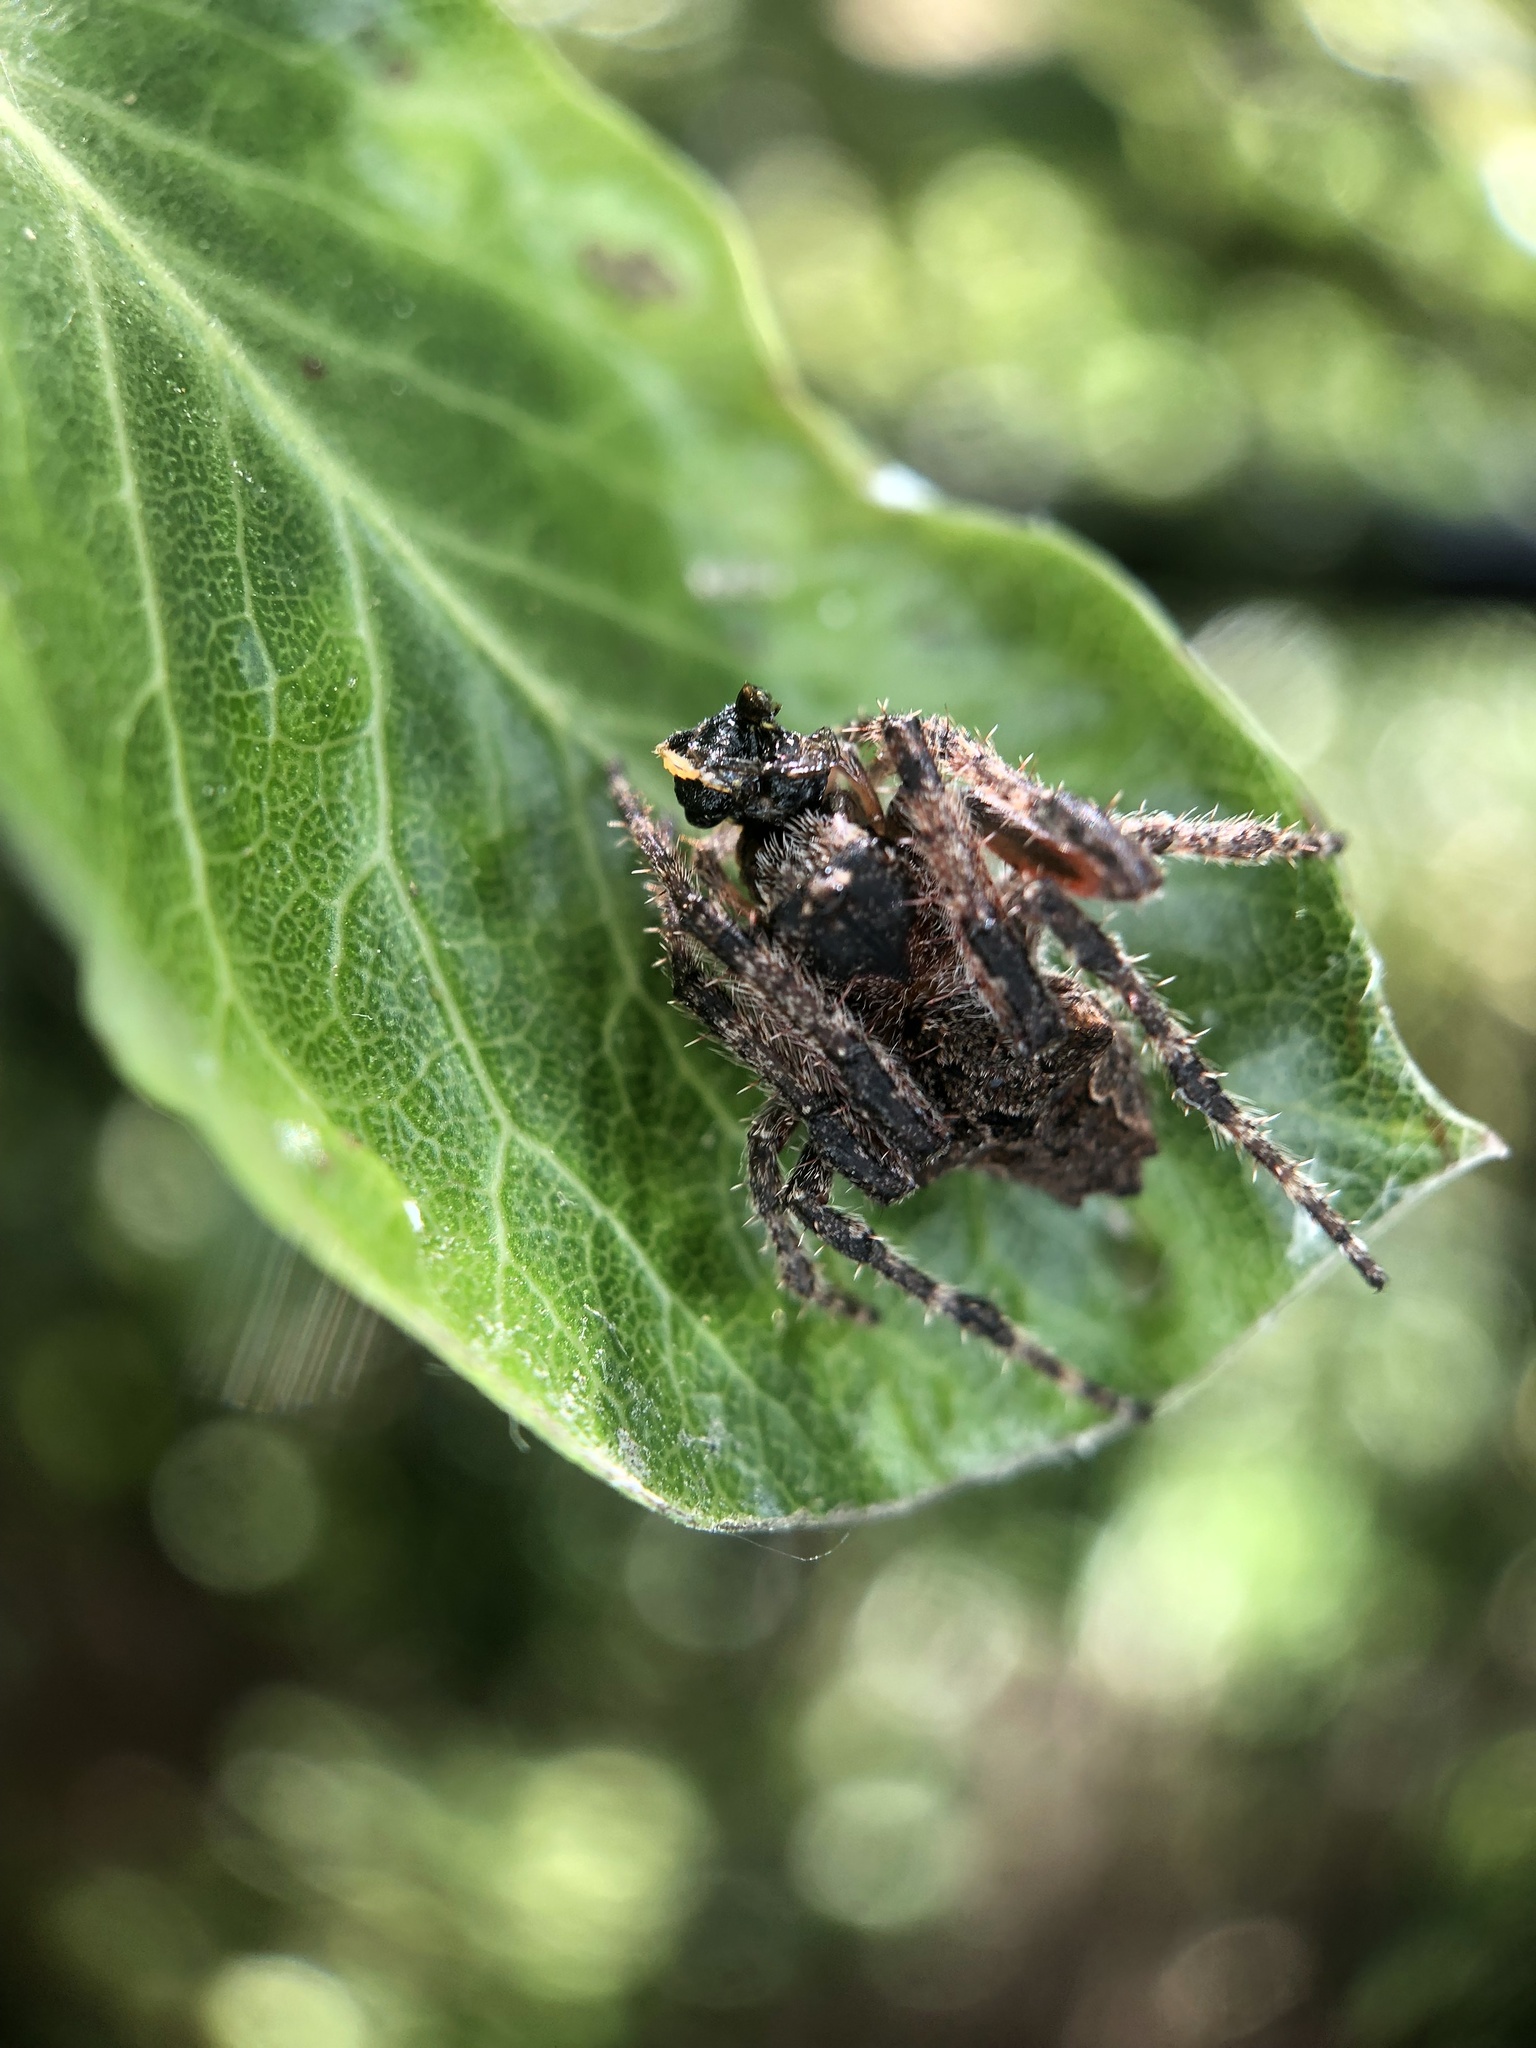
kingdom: Animalia
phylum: Arthropoda
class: Arachnida
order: Araneae
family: Araneidae
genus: Eriophora
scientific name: Eriophora pustulosa
